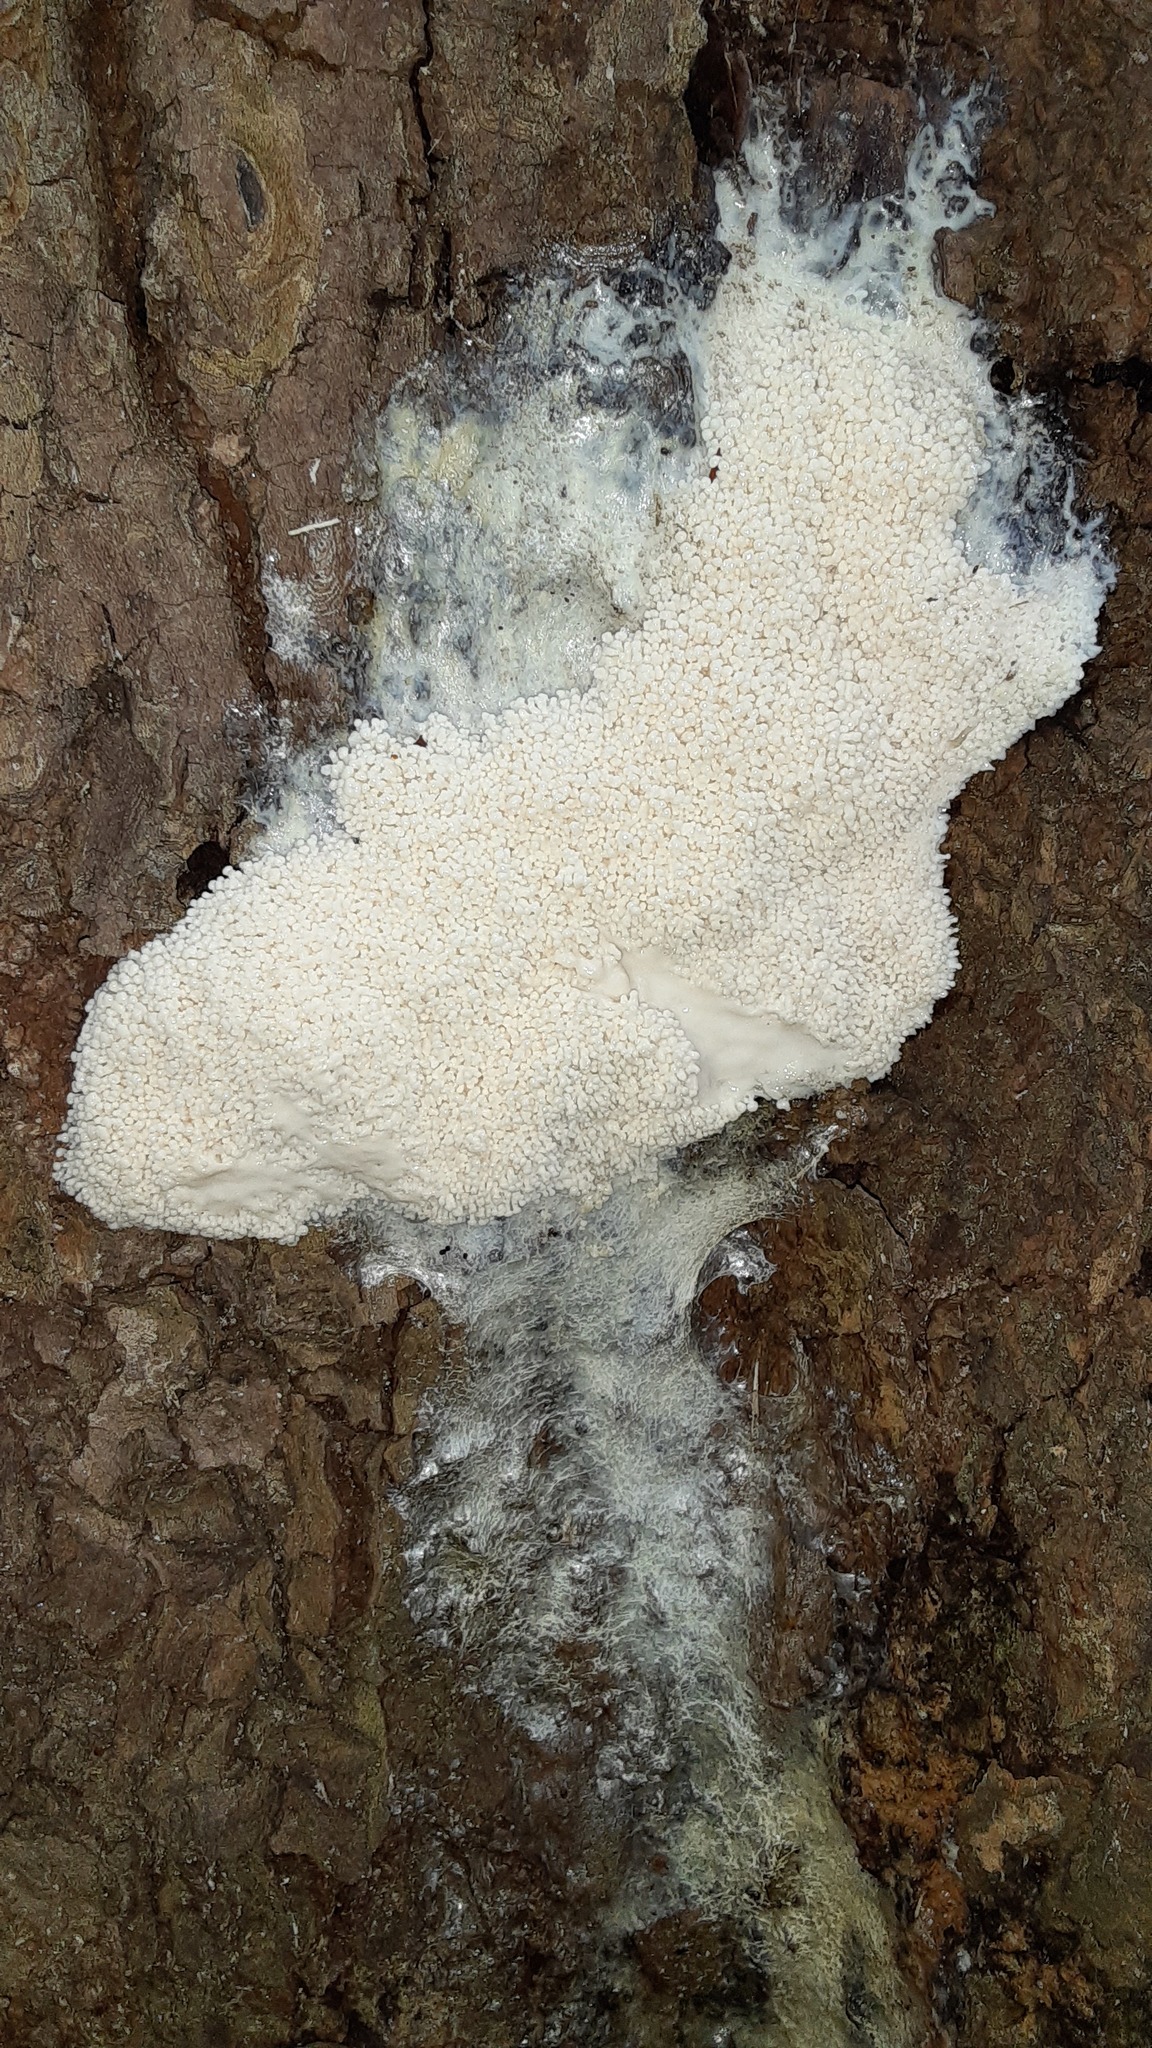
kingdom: Protozoa
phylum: Mycetozoa
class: Myxomycetes
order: Stemonitidales
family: Stemonitidaceae
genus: Brefeldia
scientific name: Brefeldia maxima
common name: Tapioca slime mold
